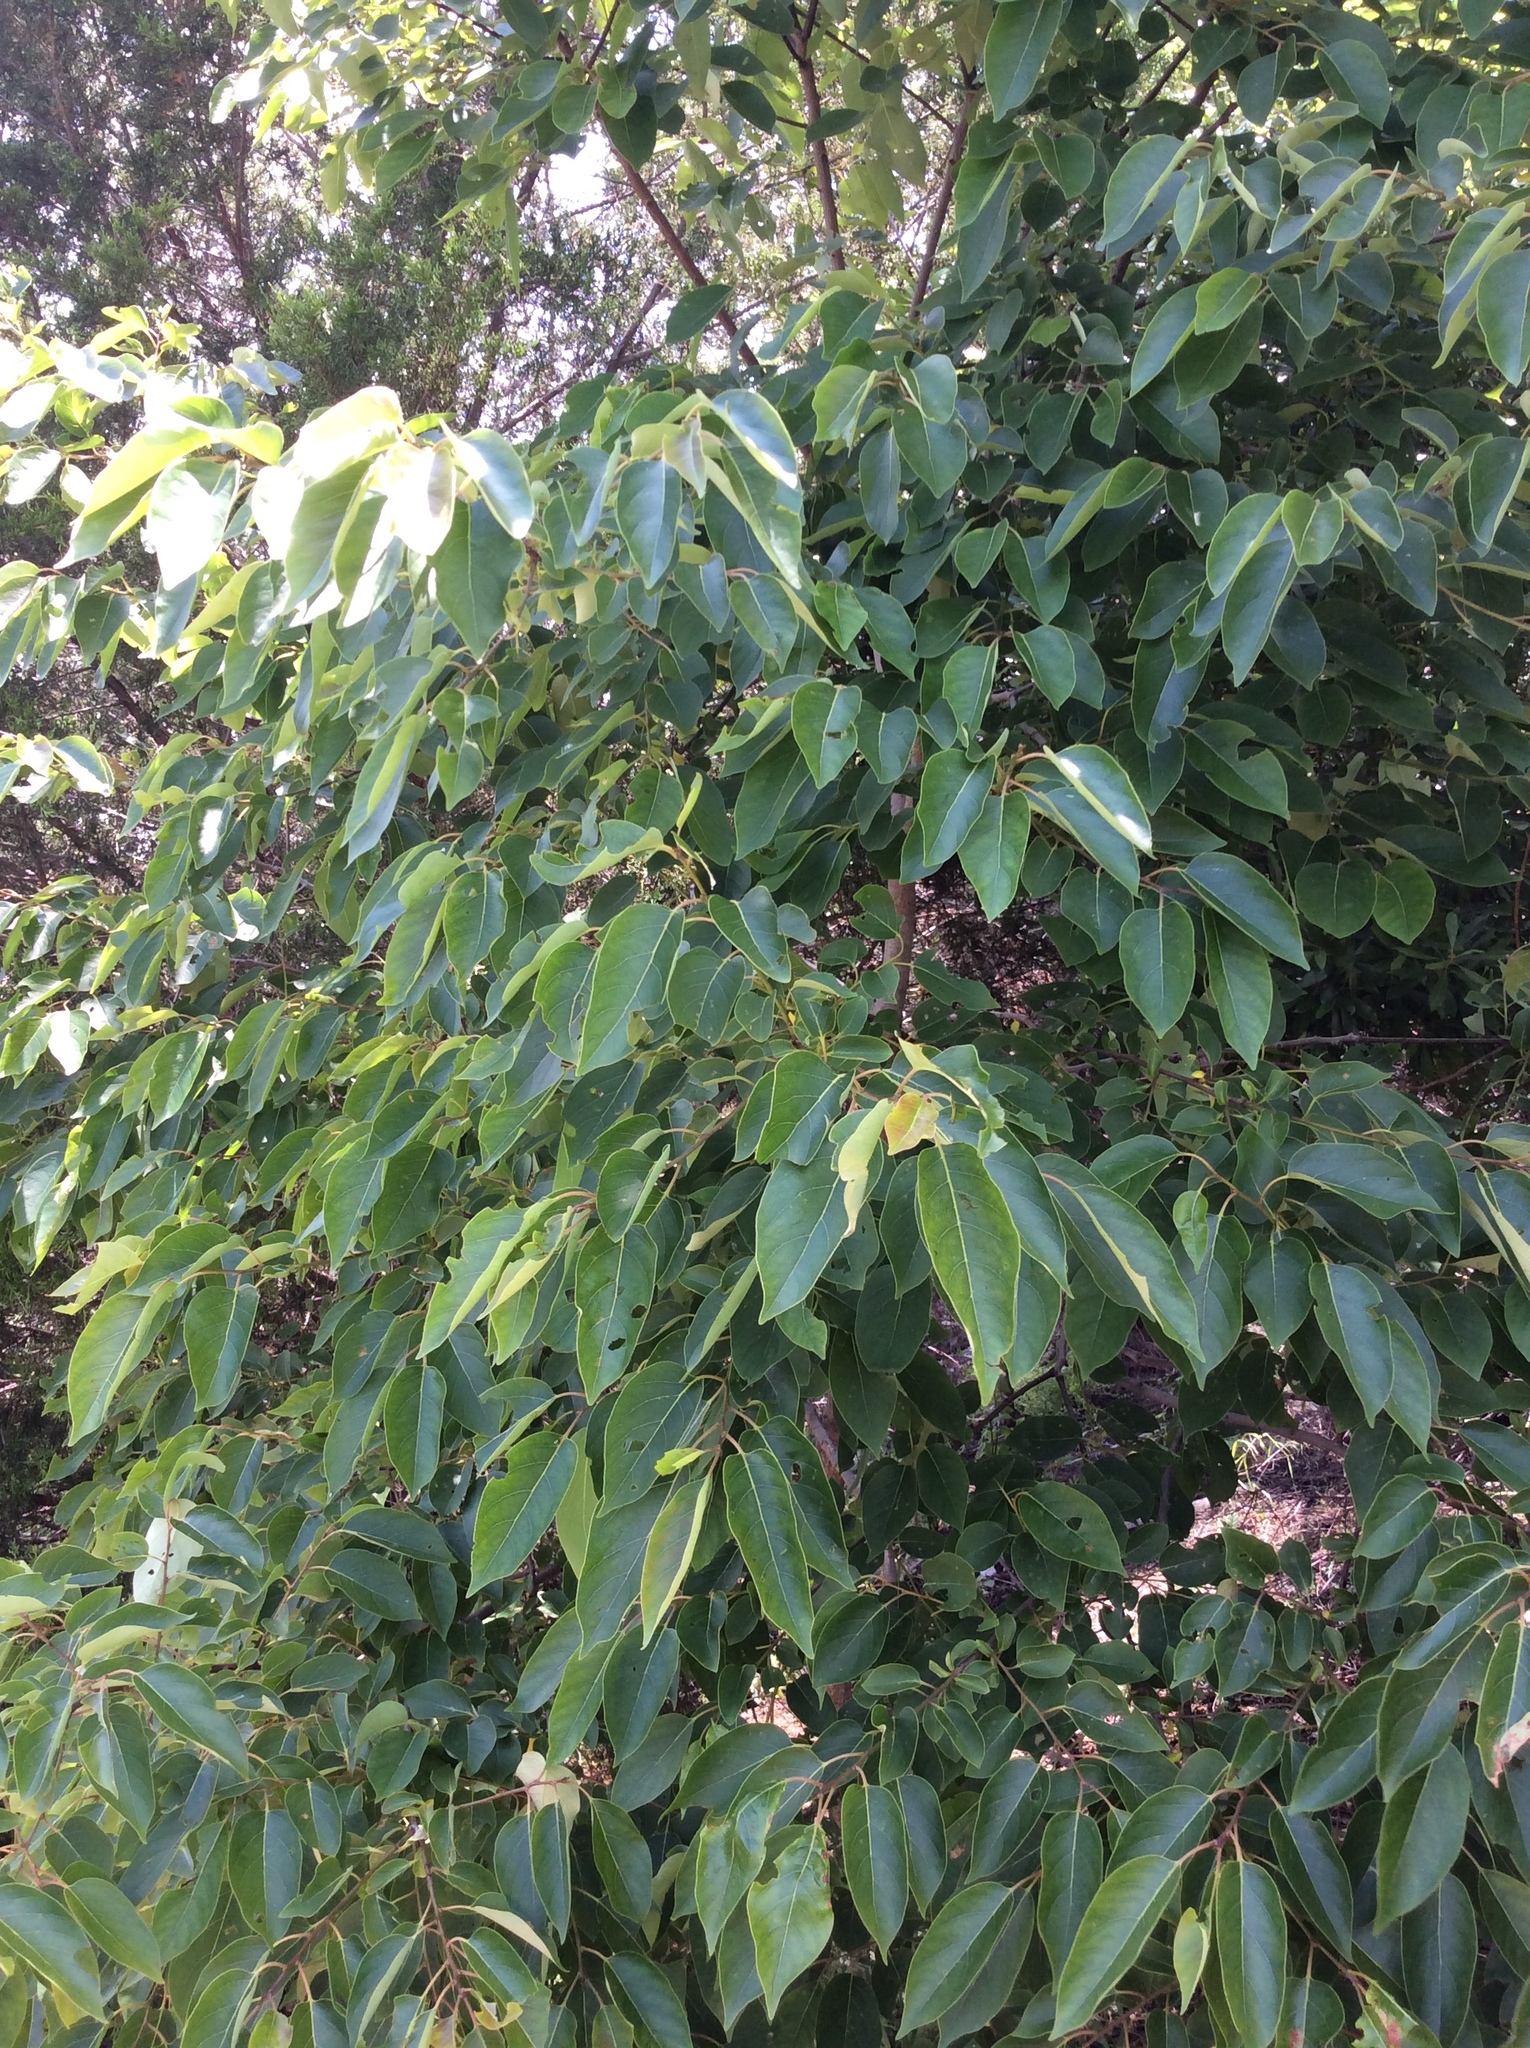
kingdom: Plantae
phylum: Tracheophyta
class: Magnoliopsida
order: Lamiales
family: Oleaceae
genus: Ligustrum
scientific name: Ligustrum lucidum
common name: Glossy privet
